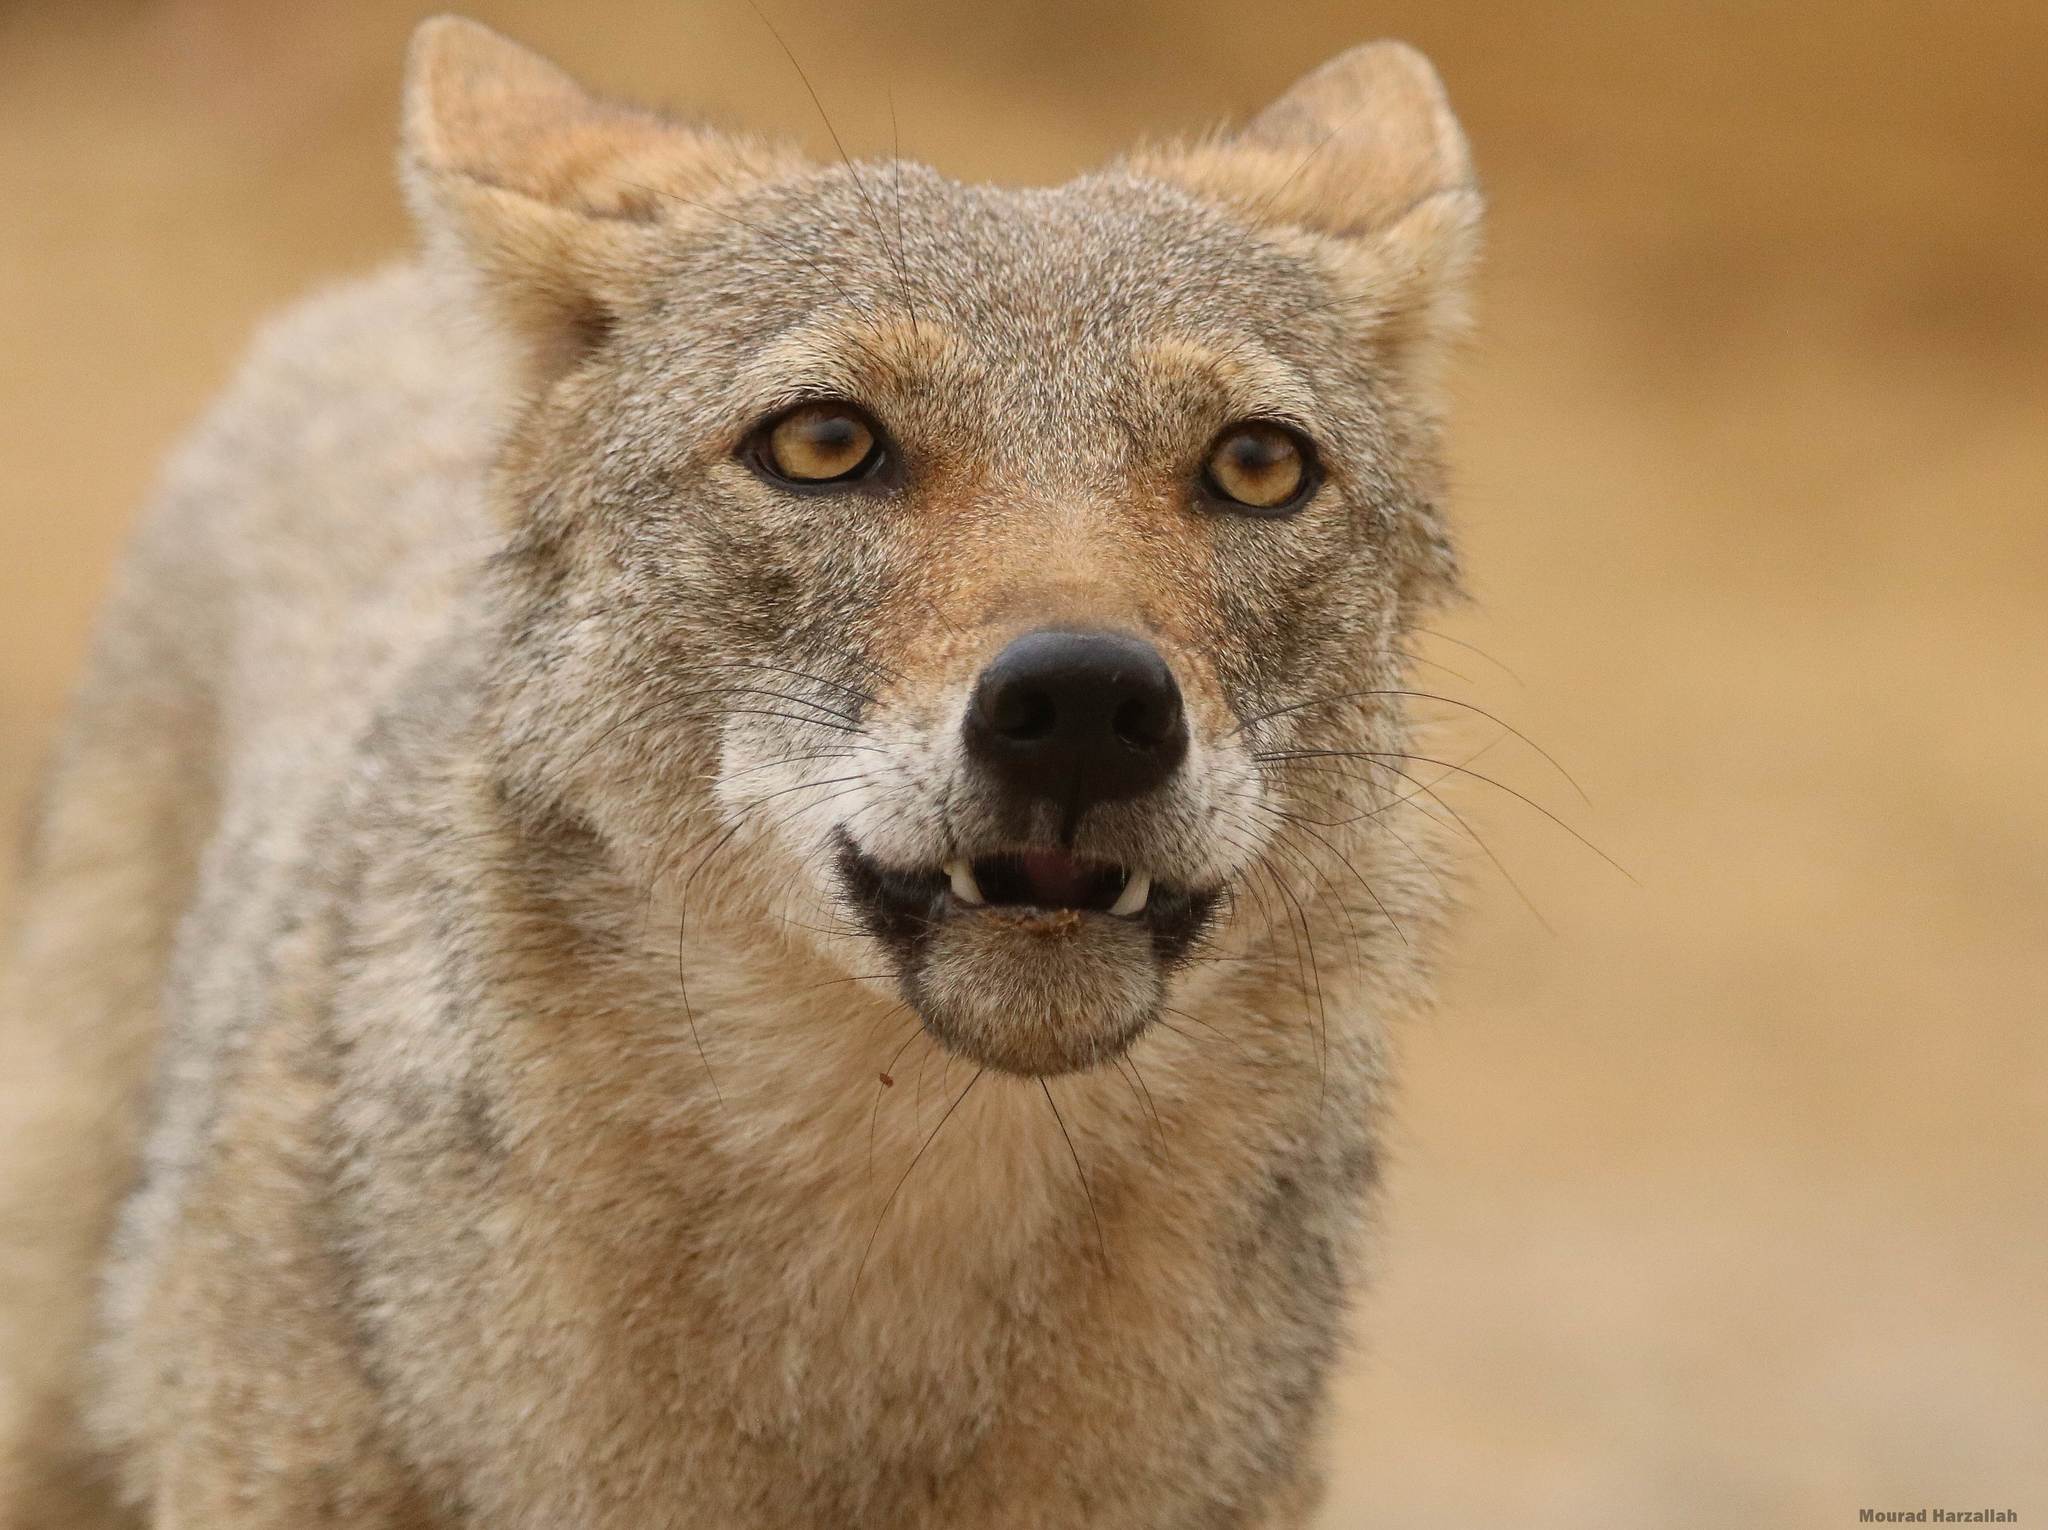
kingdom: Animalia
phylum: Chordata
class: Mammalia
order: Carnivora
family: Canidae
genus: Canis
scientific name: Canis lupaster
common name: African golden wolf
